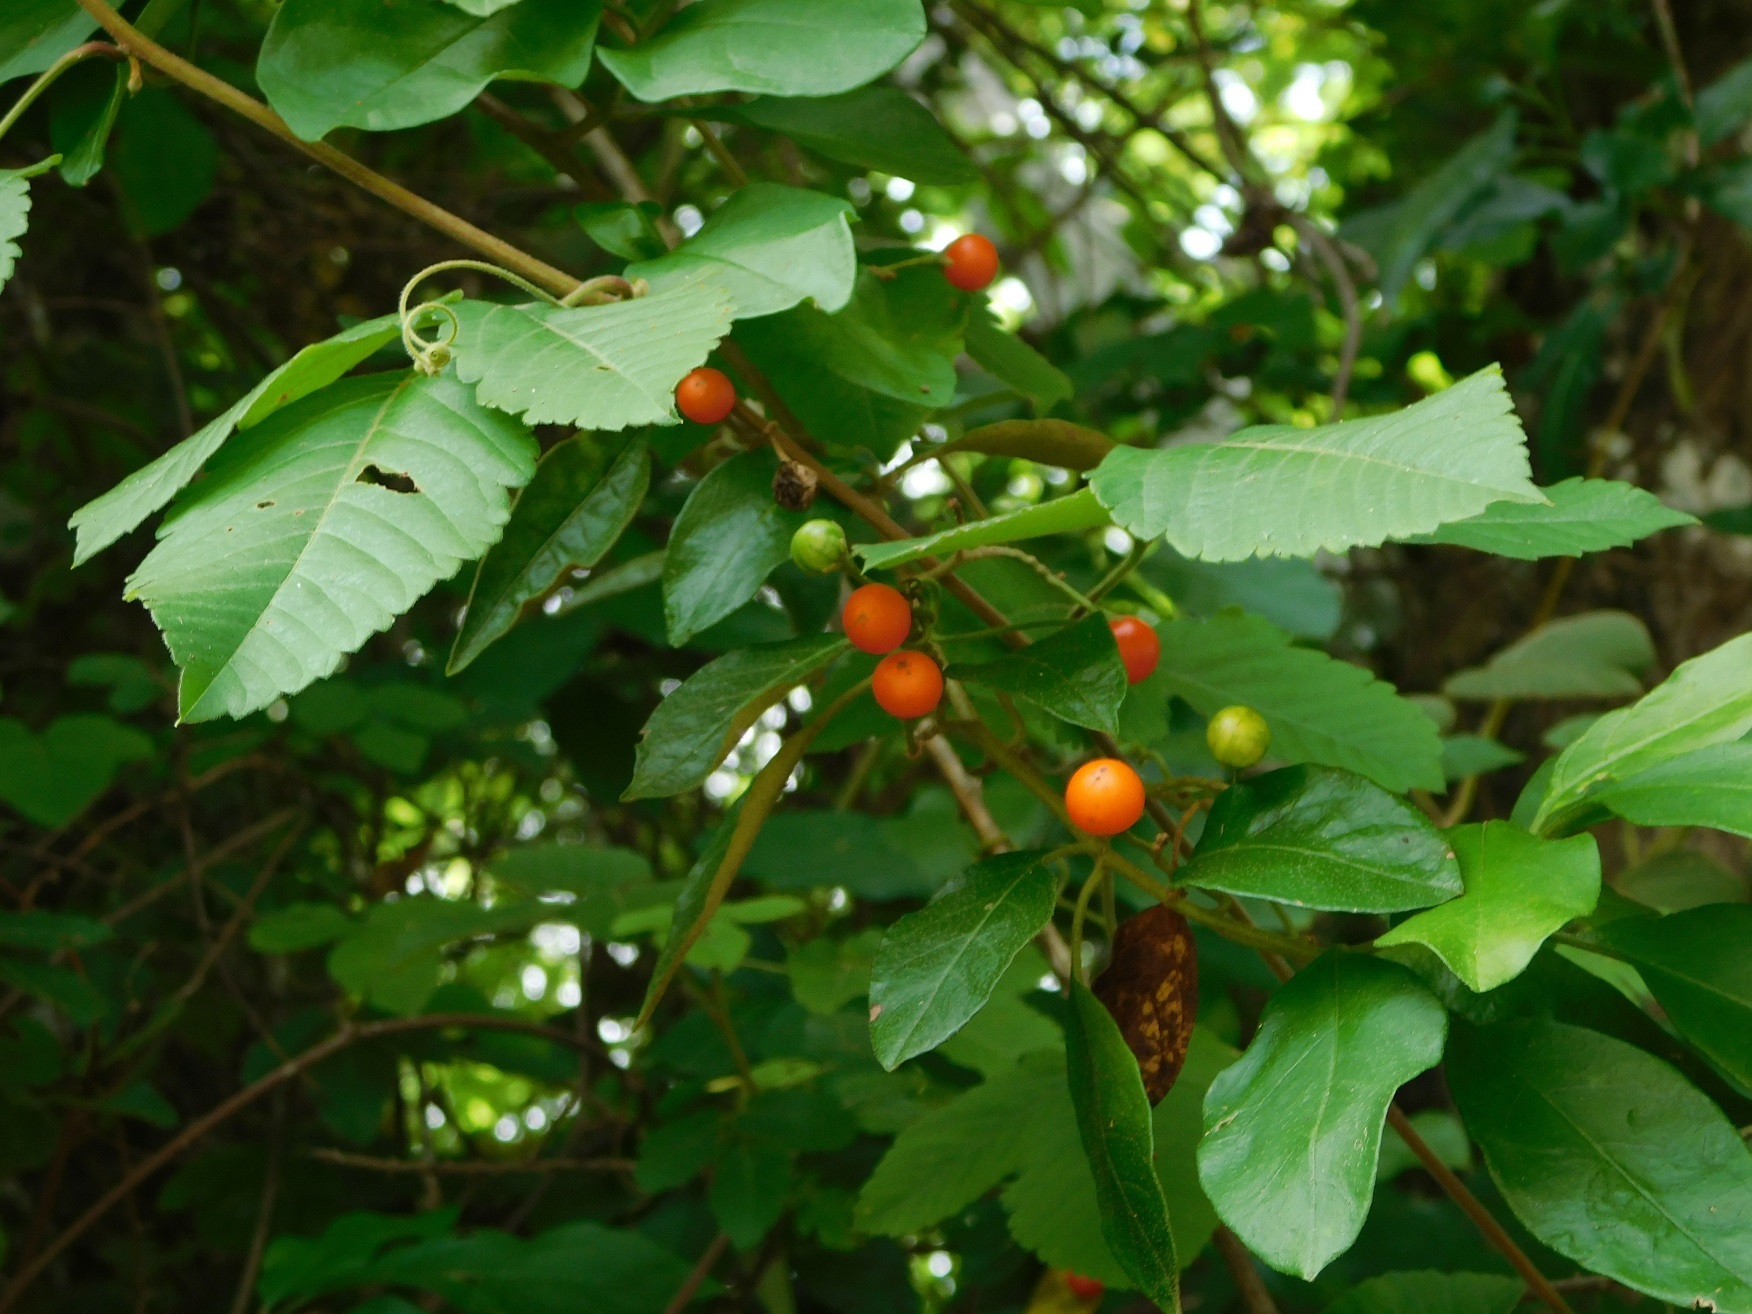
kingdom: Plantae
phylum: Tracheophyta
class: Magnoliopsida
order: Solanales
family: Solanaceae
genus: Solanum
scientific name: Solanum aturense
